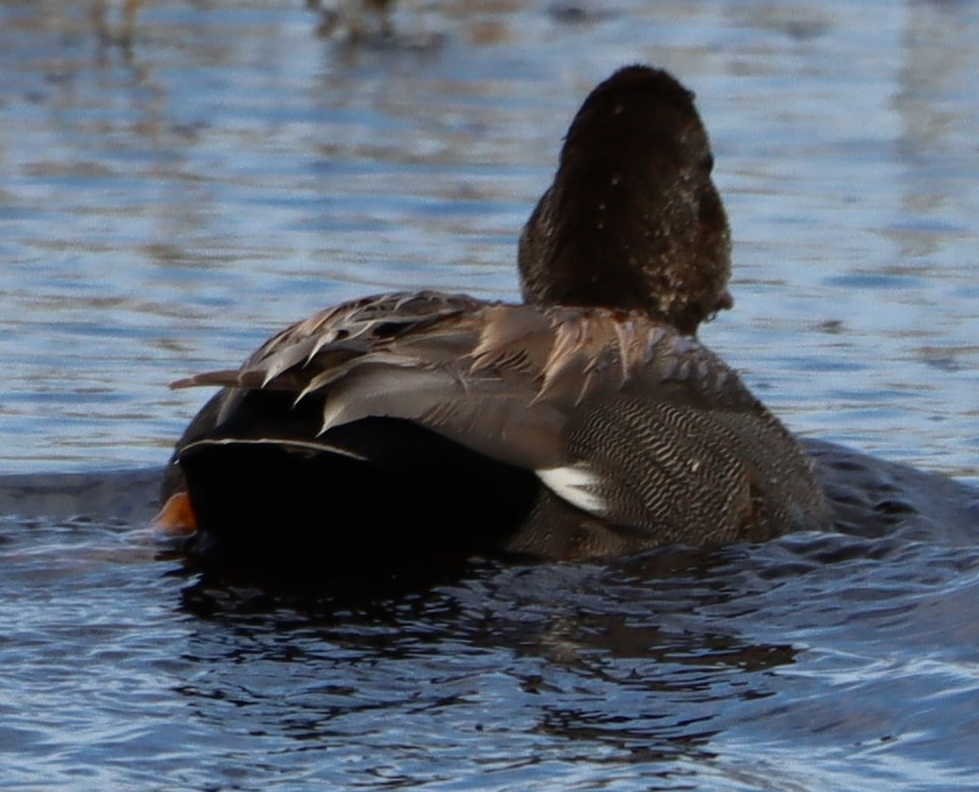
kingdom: Animalia
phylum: Chordata
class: Aves
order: Anseriformes
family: Anatidae
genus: Mareca
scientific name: Mareca strepera
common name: Gadwall
